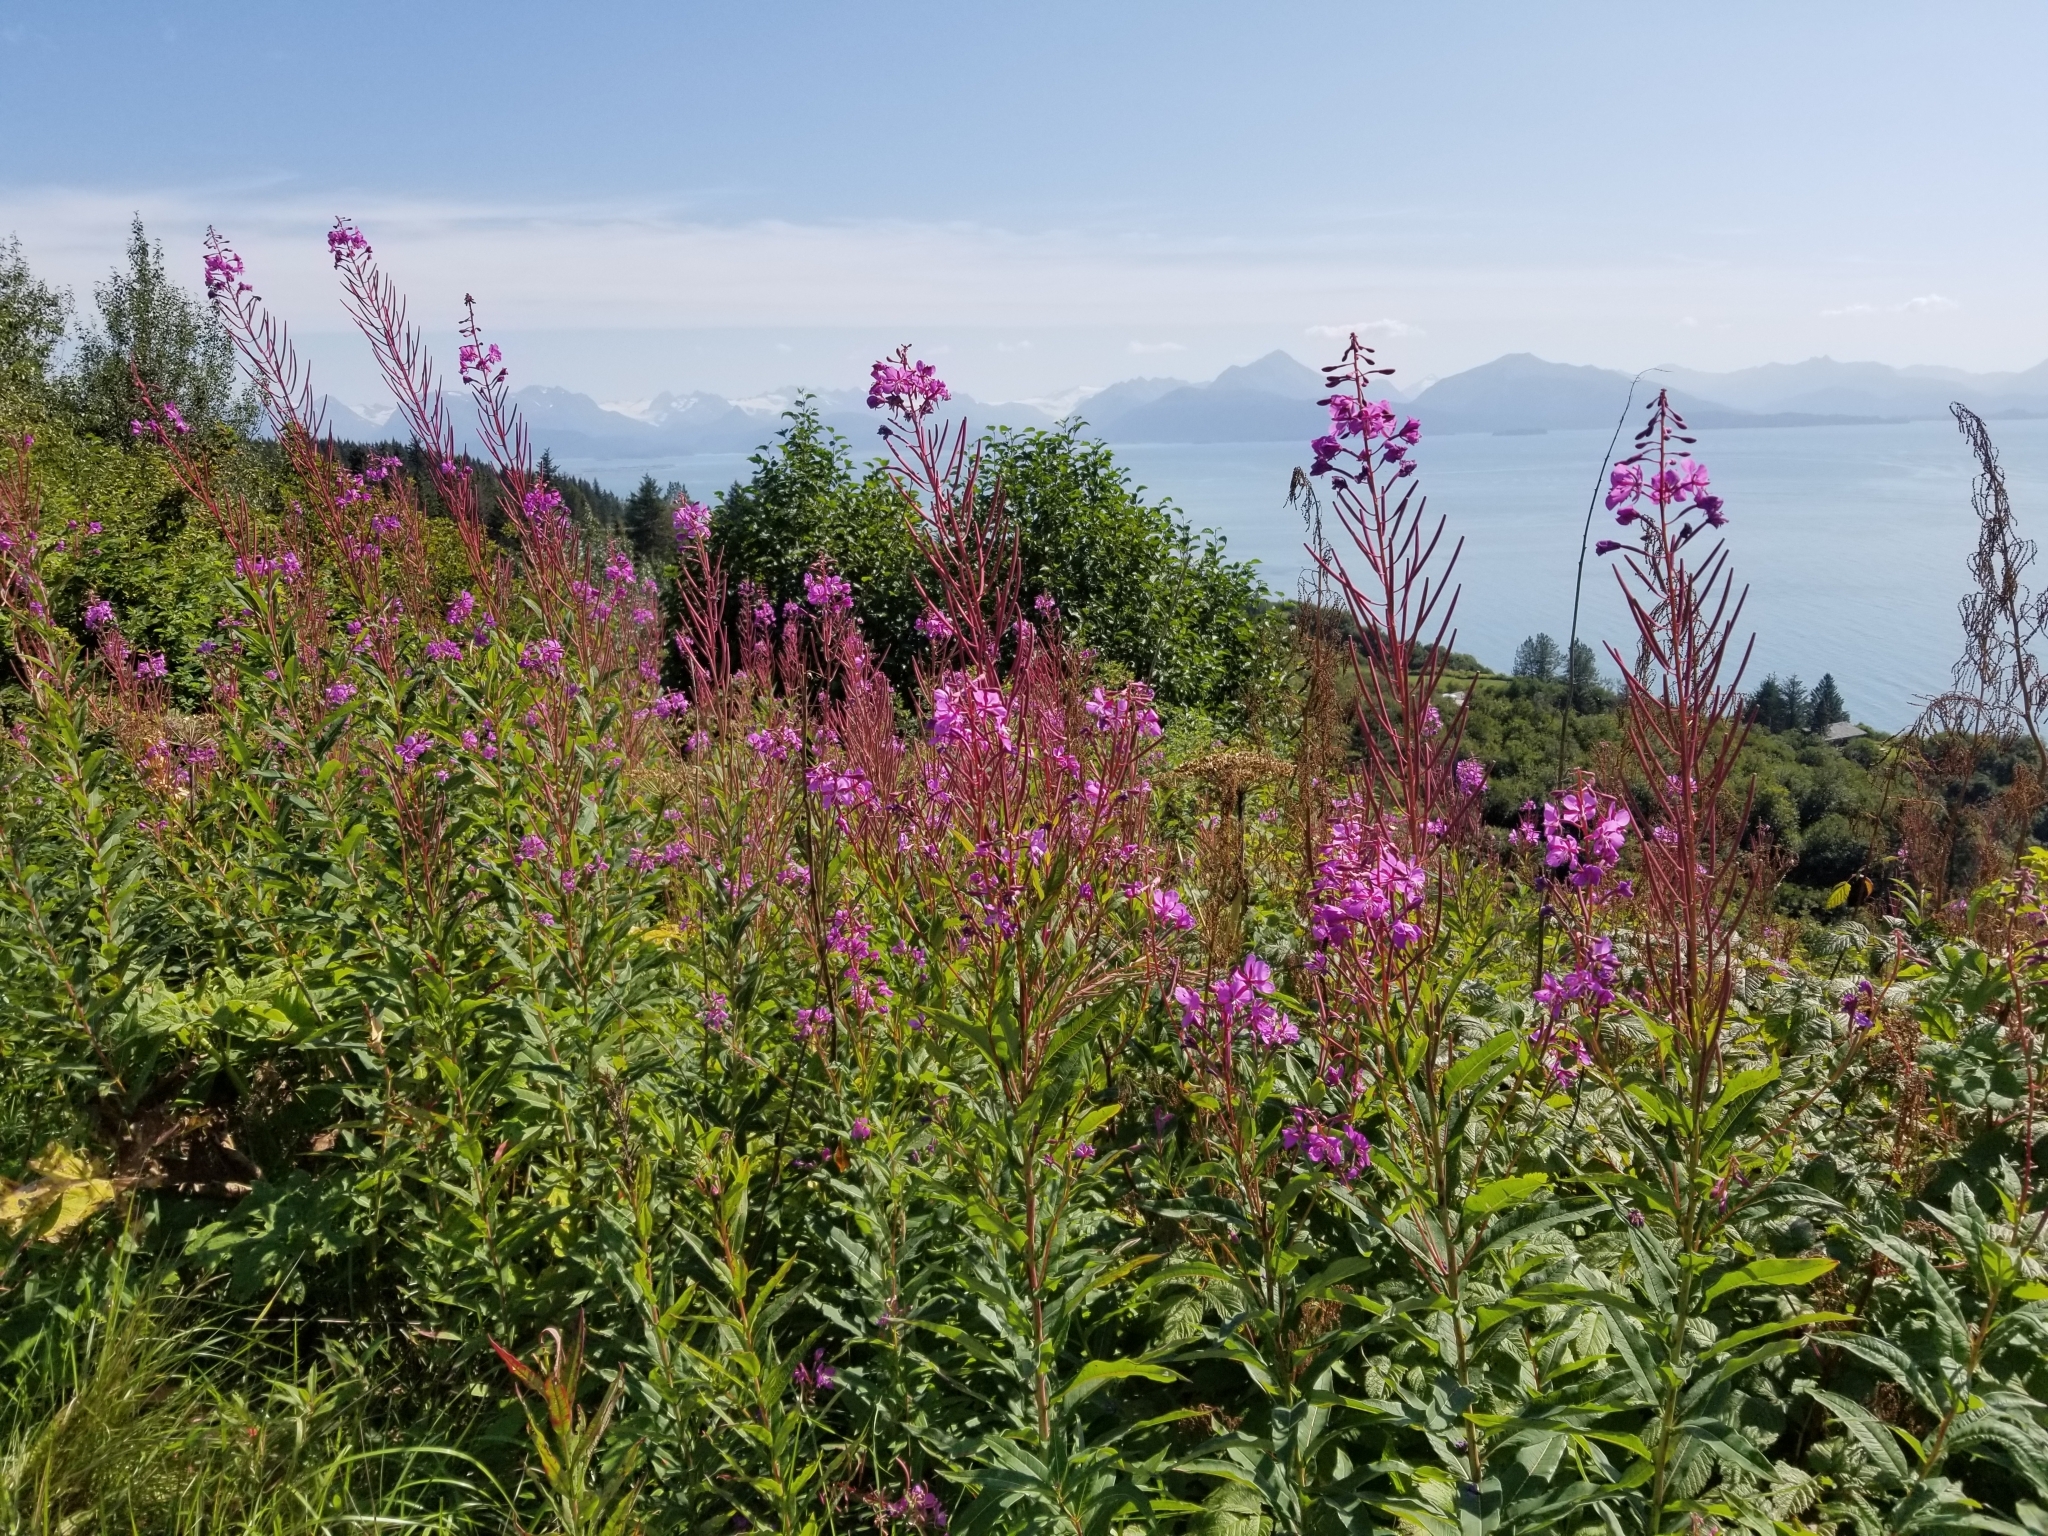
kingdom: Plantae
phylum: Tracheophyta
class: Magnoliopsida
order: Myrtales
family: Onagraceae
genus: Chamaenerion
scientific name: Chamaenerion angustifolium
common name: Fireweed
